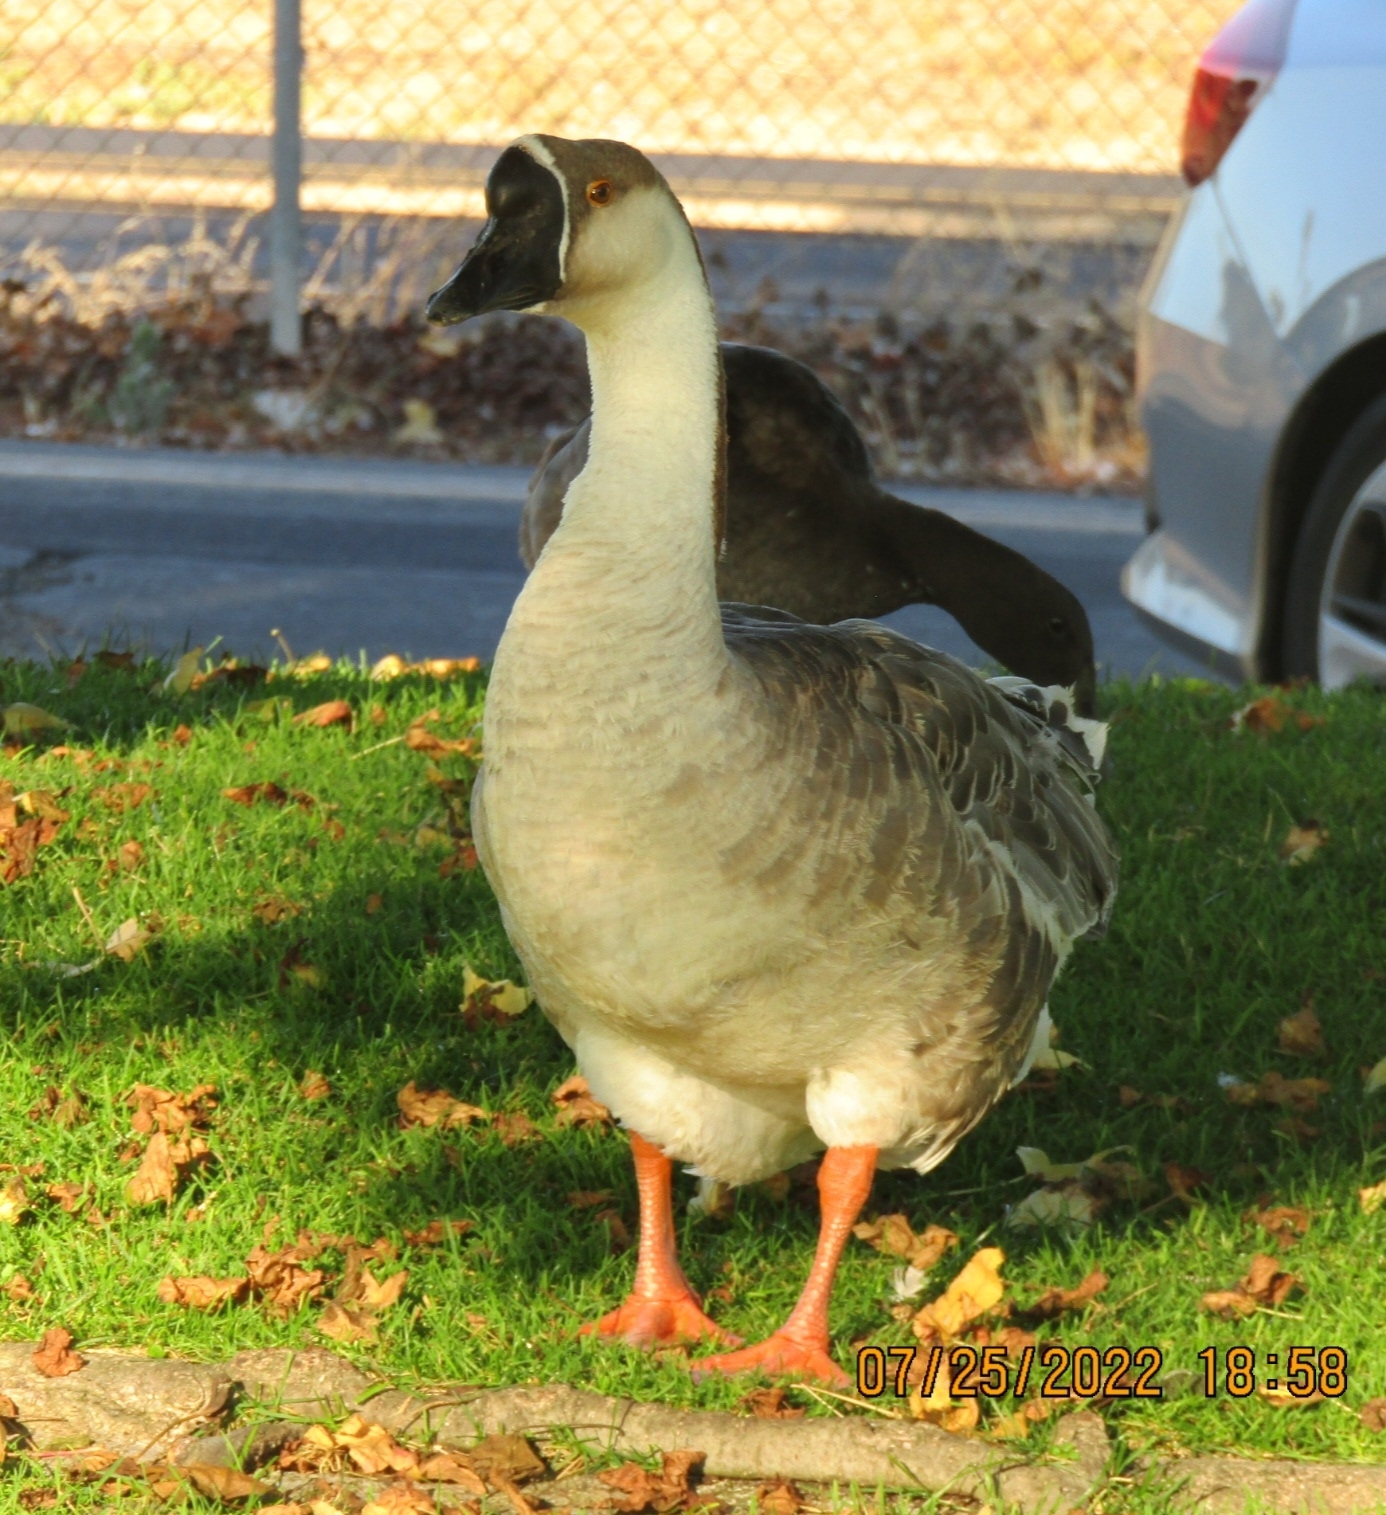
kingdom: Animalia
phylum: Chordata
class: Aves
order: Anseriformes
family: Anatidae
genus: Anser
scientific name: Anser cygnoides
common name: Swan goose
